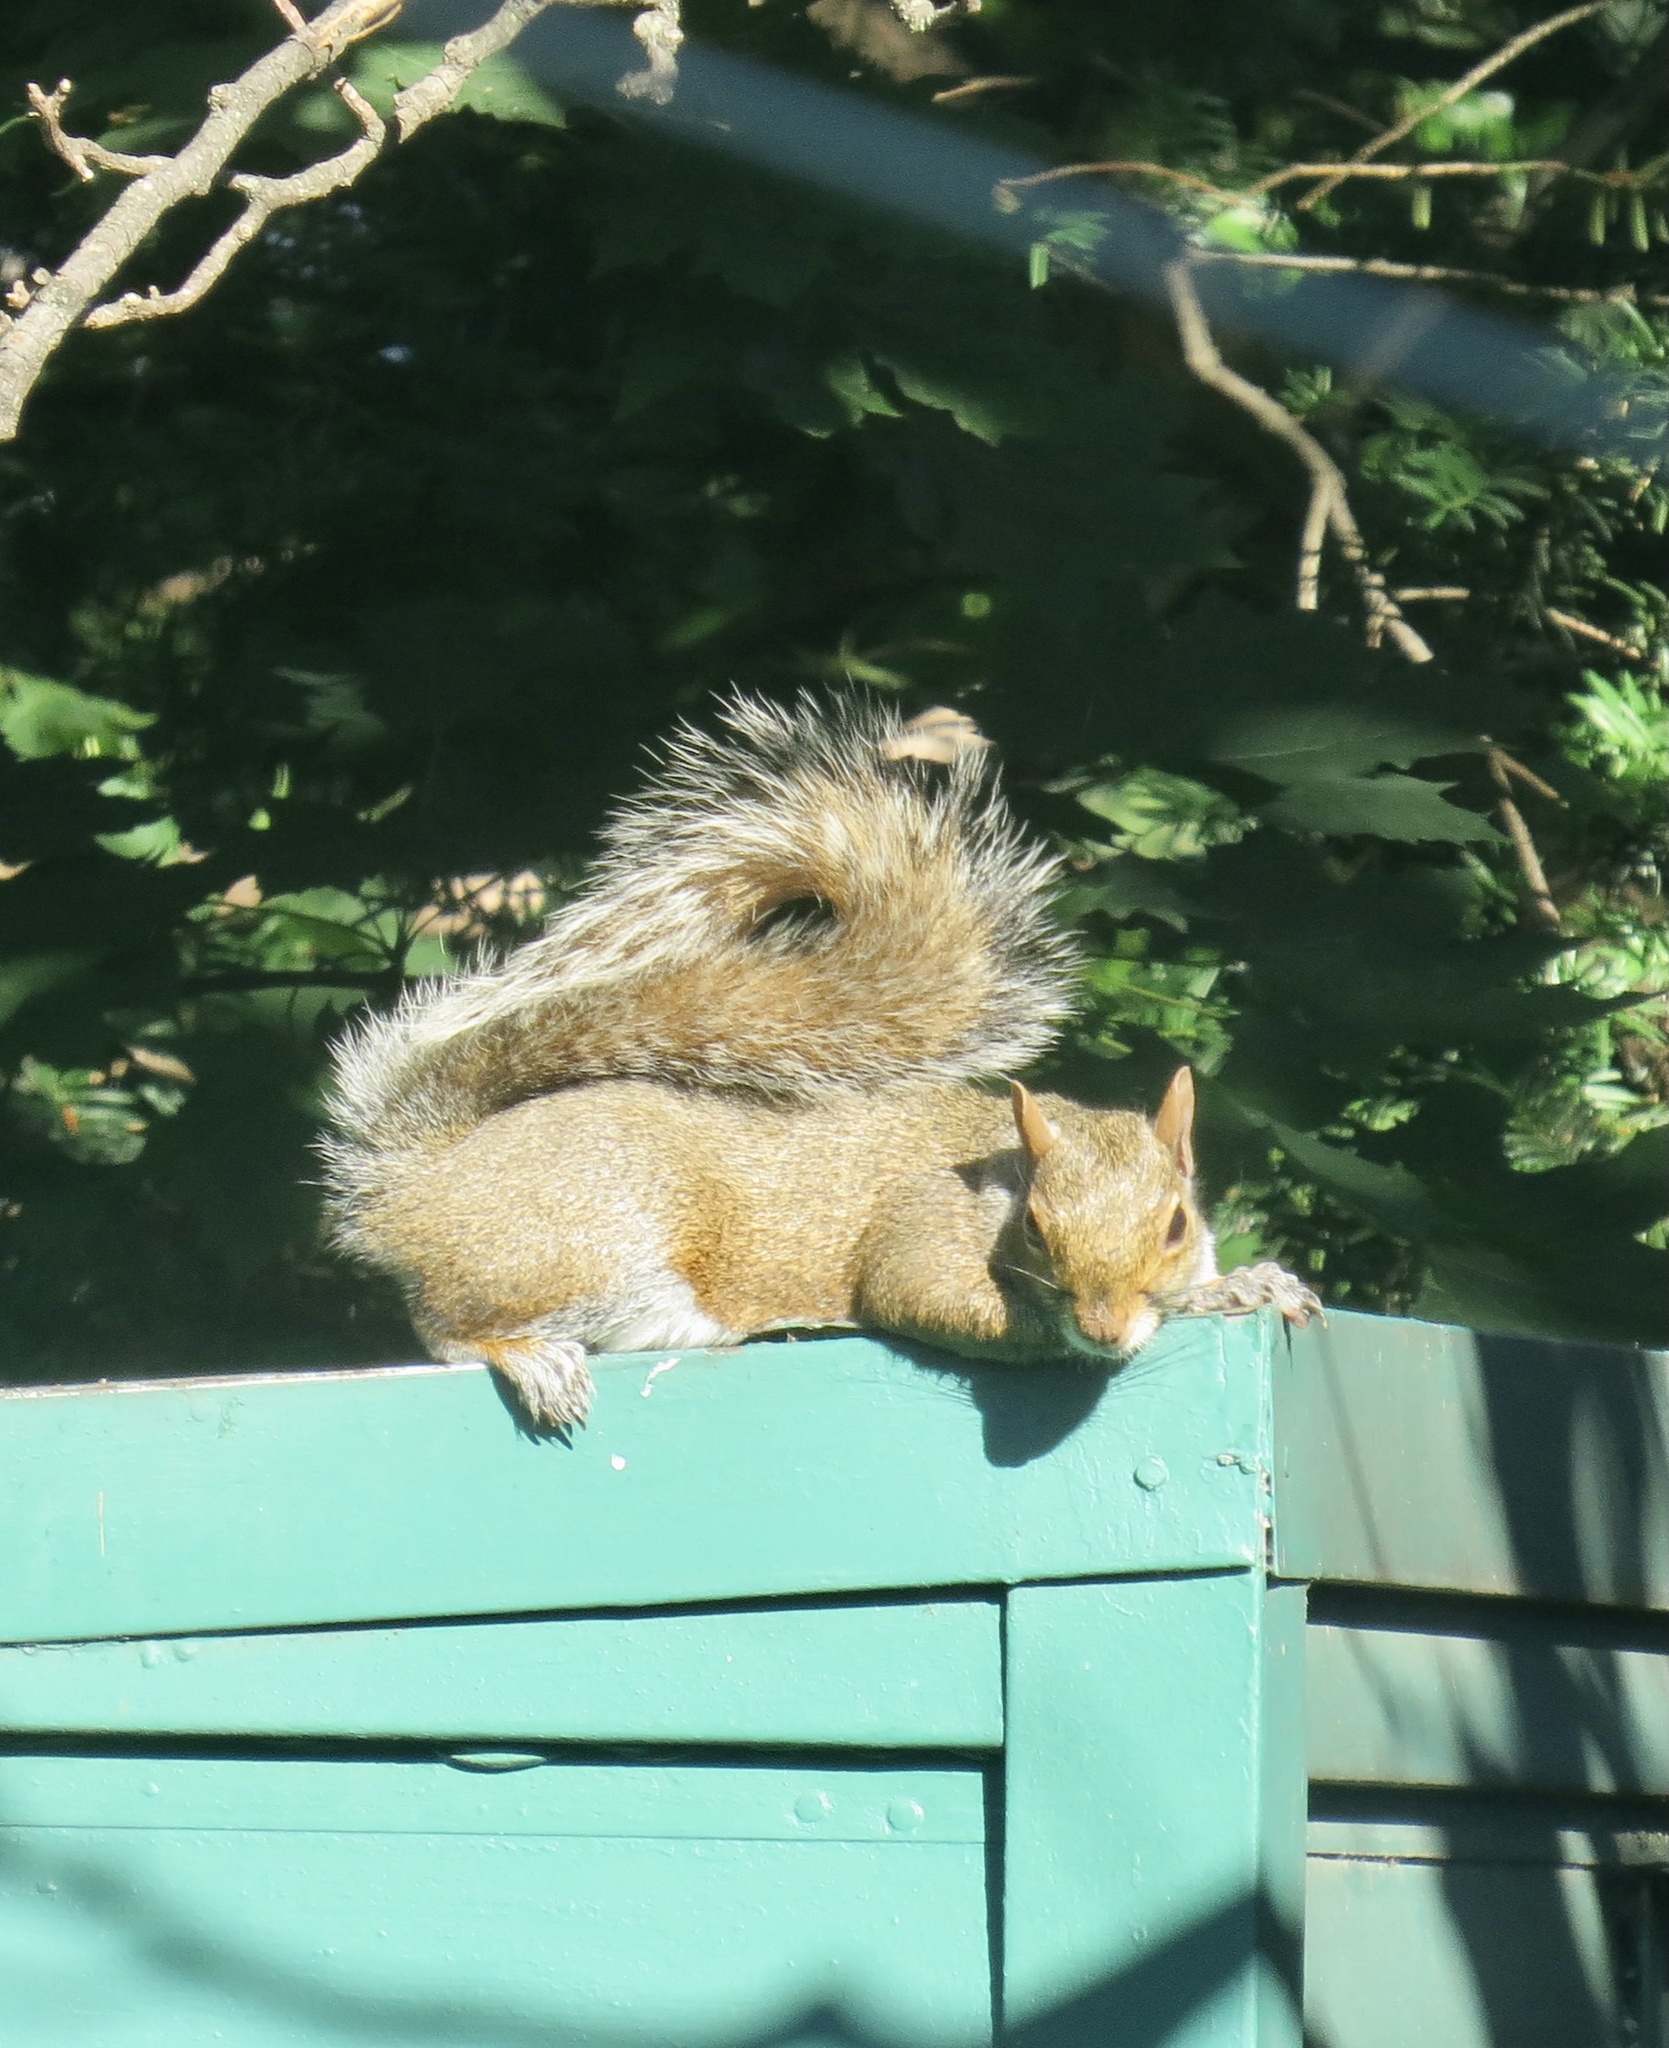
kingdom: Animalia
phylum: Chordata
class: Mammalia
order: Rodentia
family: Sciuridae
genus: Sciurus
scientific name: Sciurus carolinensis
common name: Eastern gray squirrel
